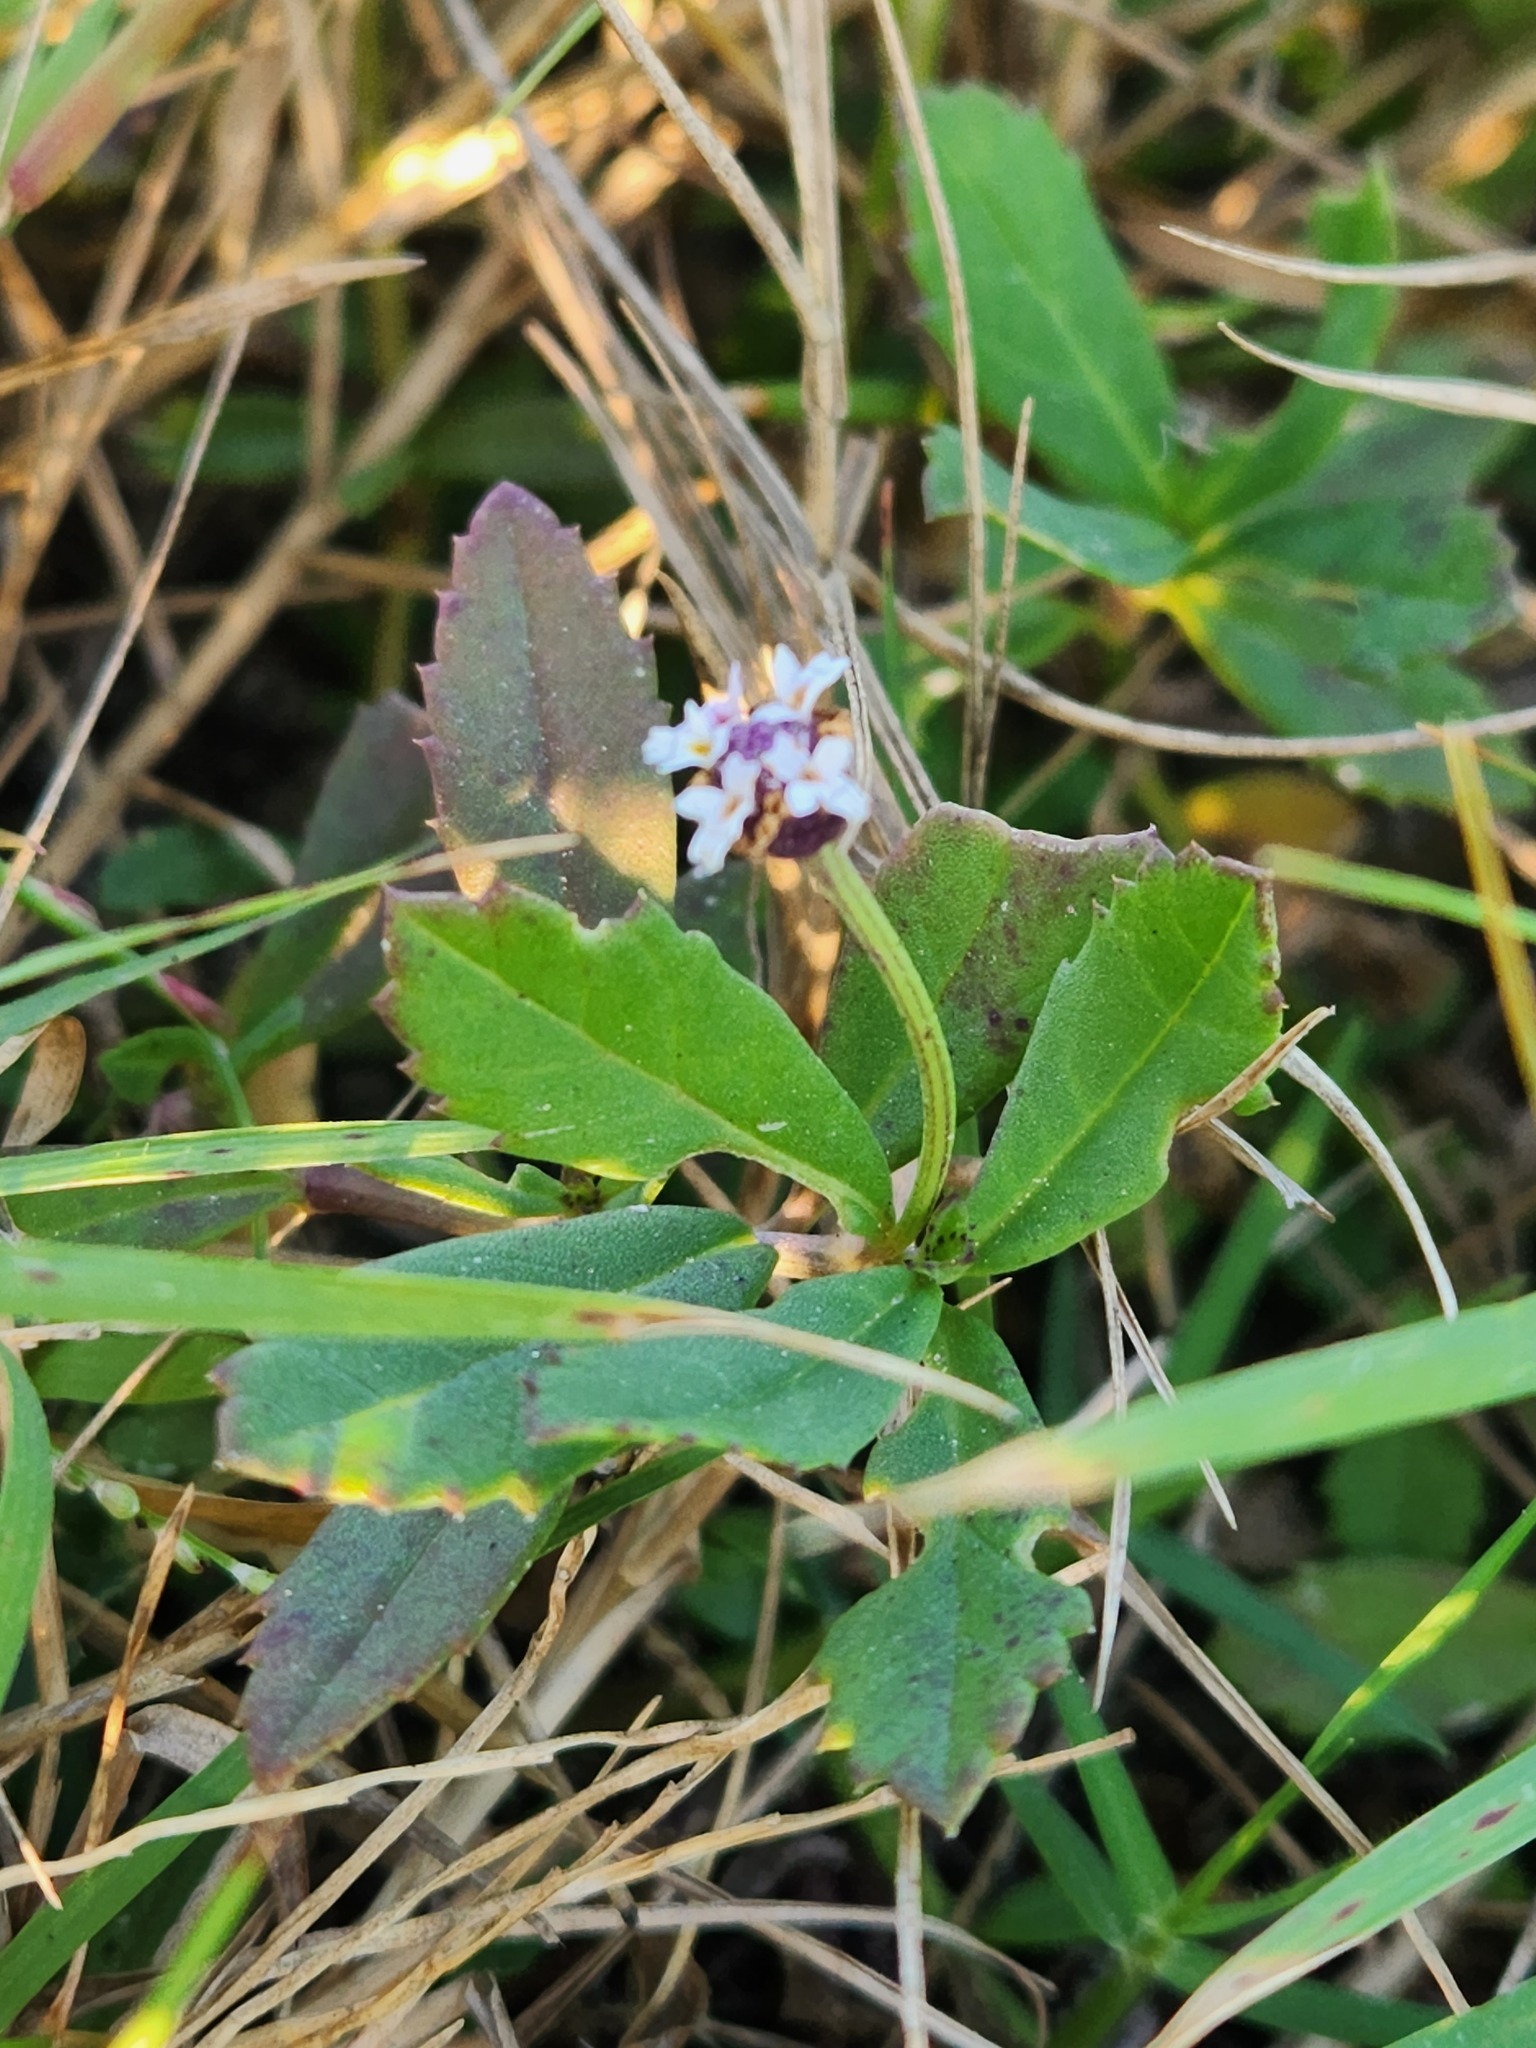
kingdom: Plantae
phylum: Tracheophyta
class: Magnoliopsida
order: Lamiales
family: Verbenaceae
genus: Phyla
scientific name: Phyla nodiflora
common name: Frogfruit
